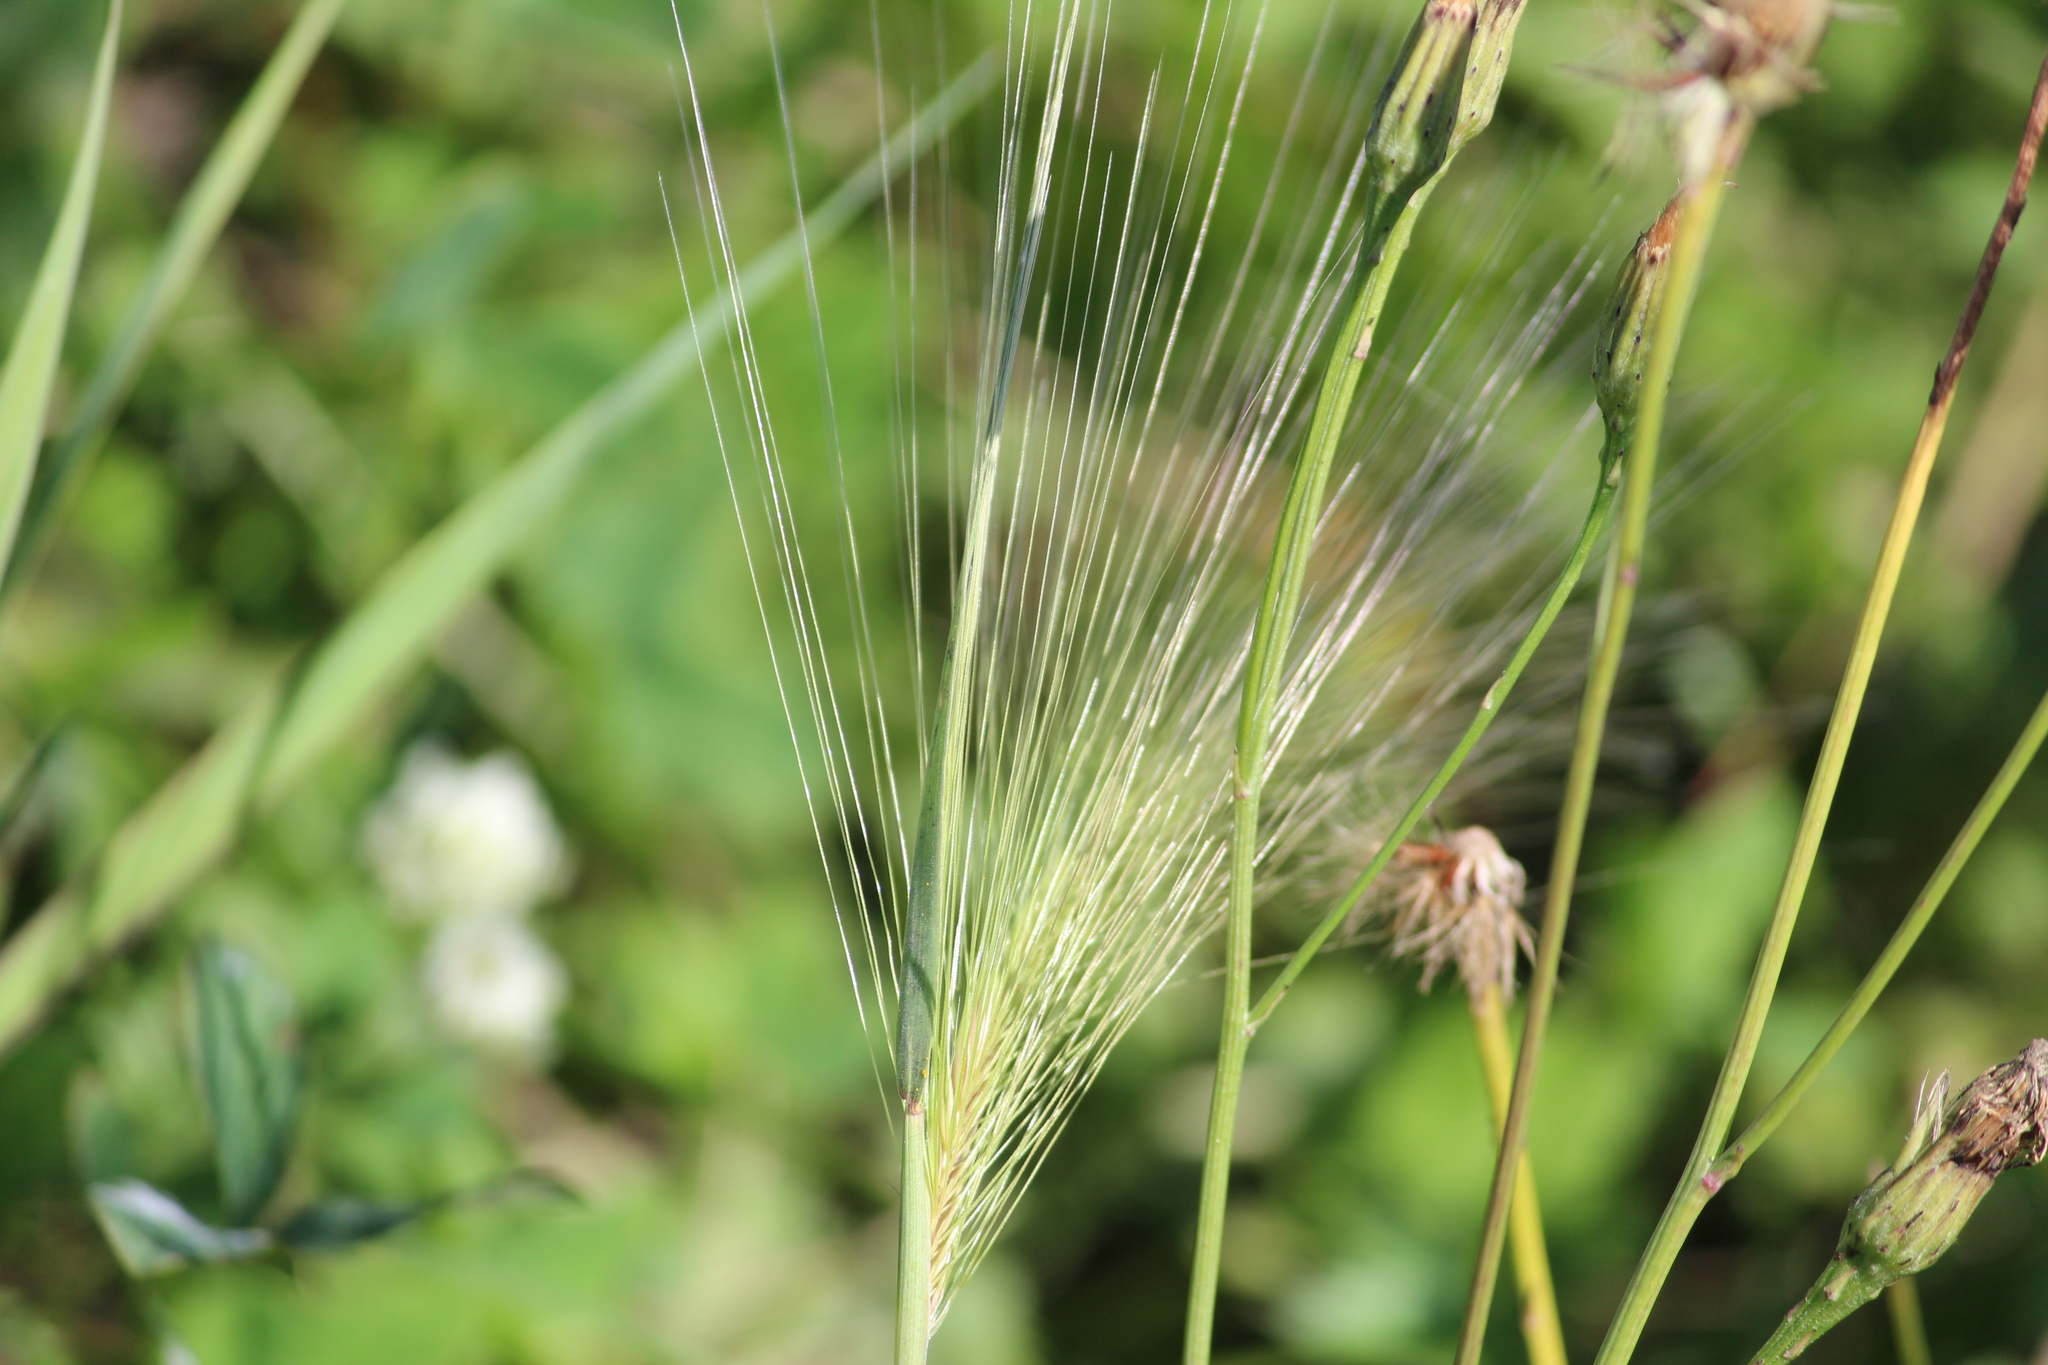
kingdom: Plantae
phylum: Tracheophyta
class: Liliopsida
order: Poales
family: Poaceae
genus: Hordeum
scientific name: Hordeum jubatum
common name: Foxtail barley
